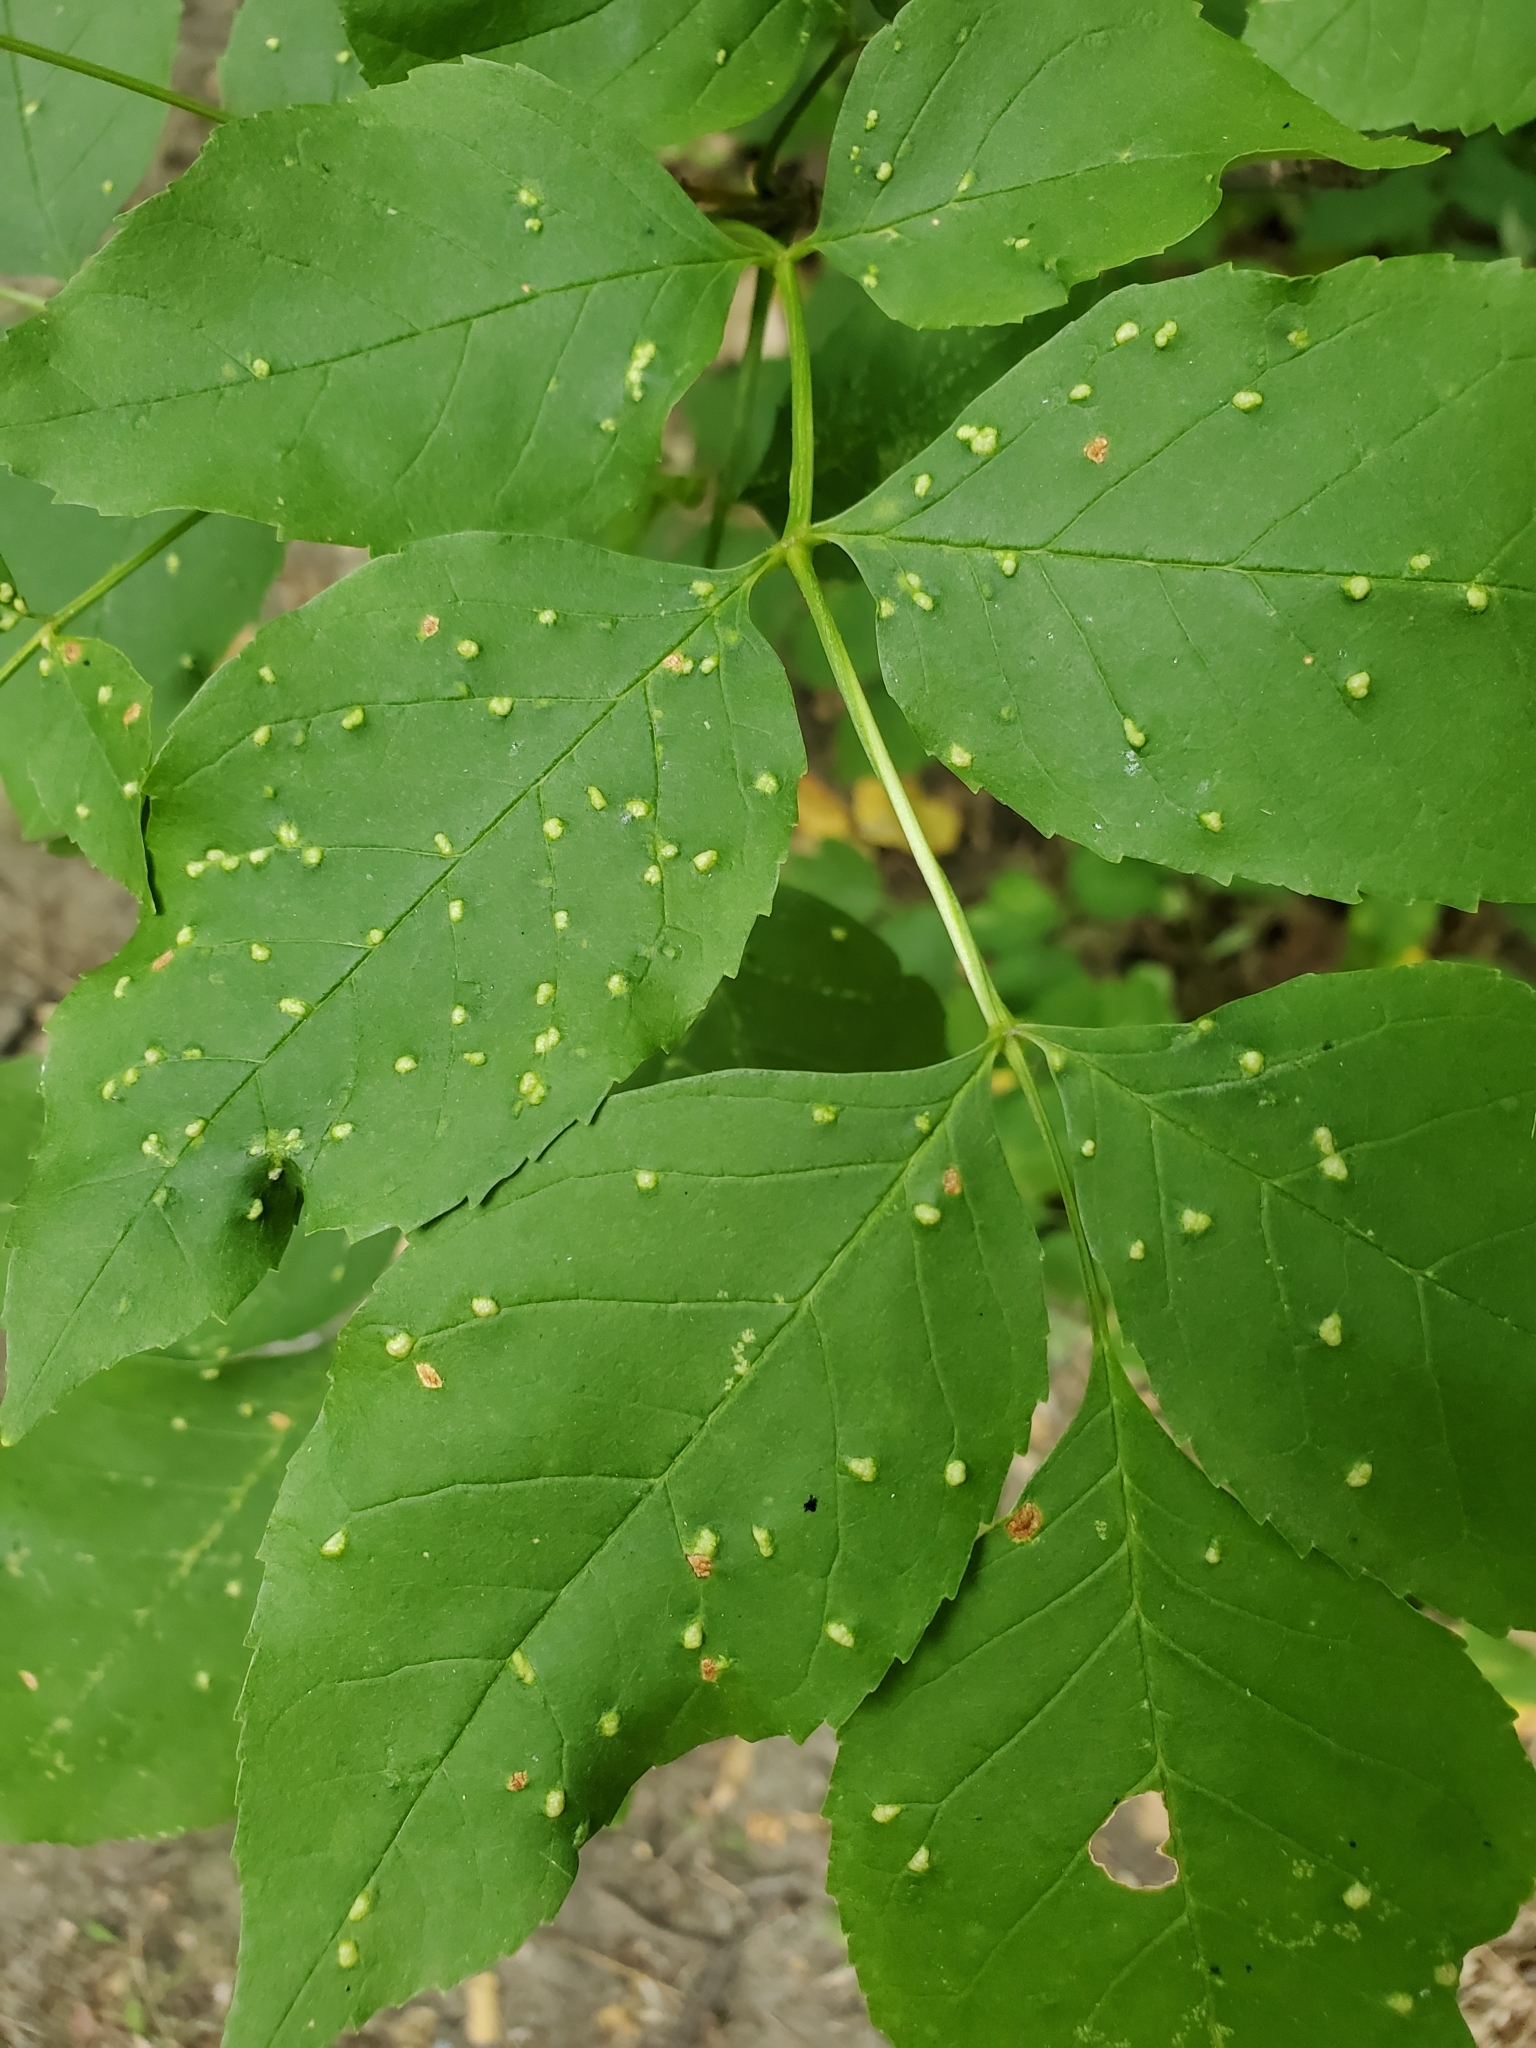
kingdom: Animalia
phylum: Arthropoda
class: Arachnida
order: Trombidiformes
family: Eriophyidae
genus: Aceria
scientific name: Aceria fraxinicola
